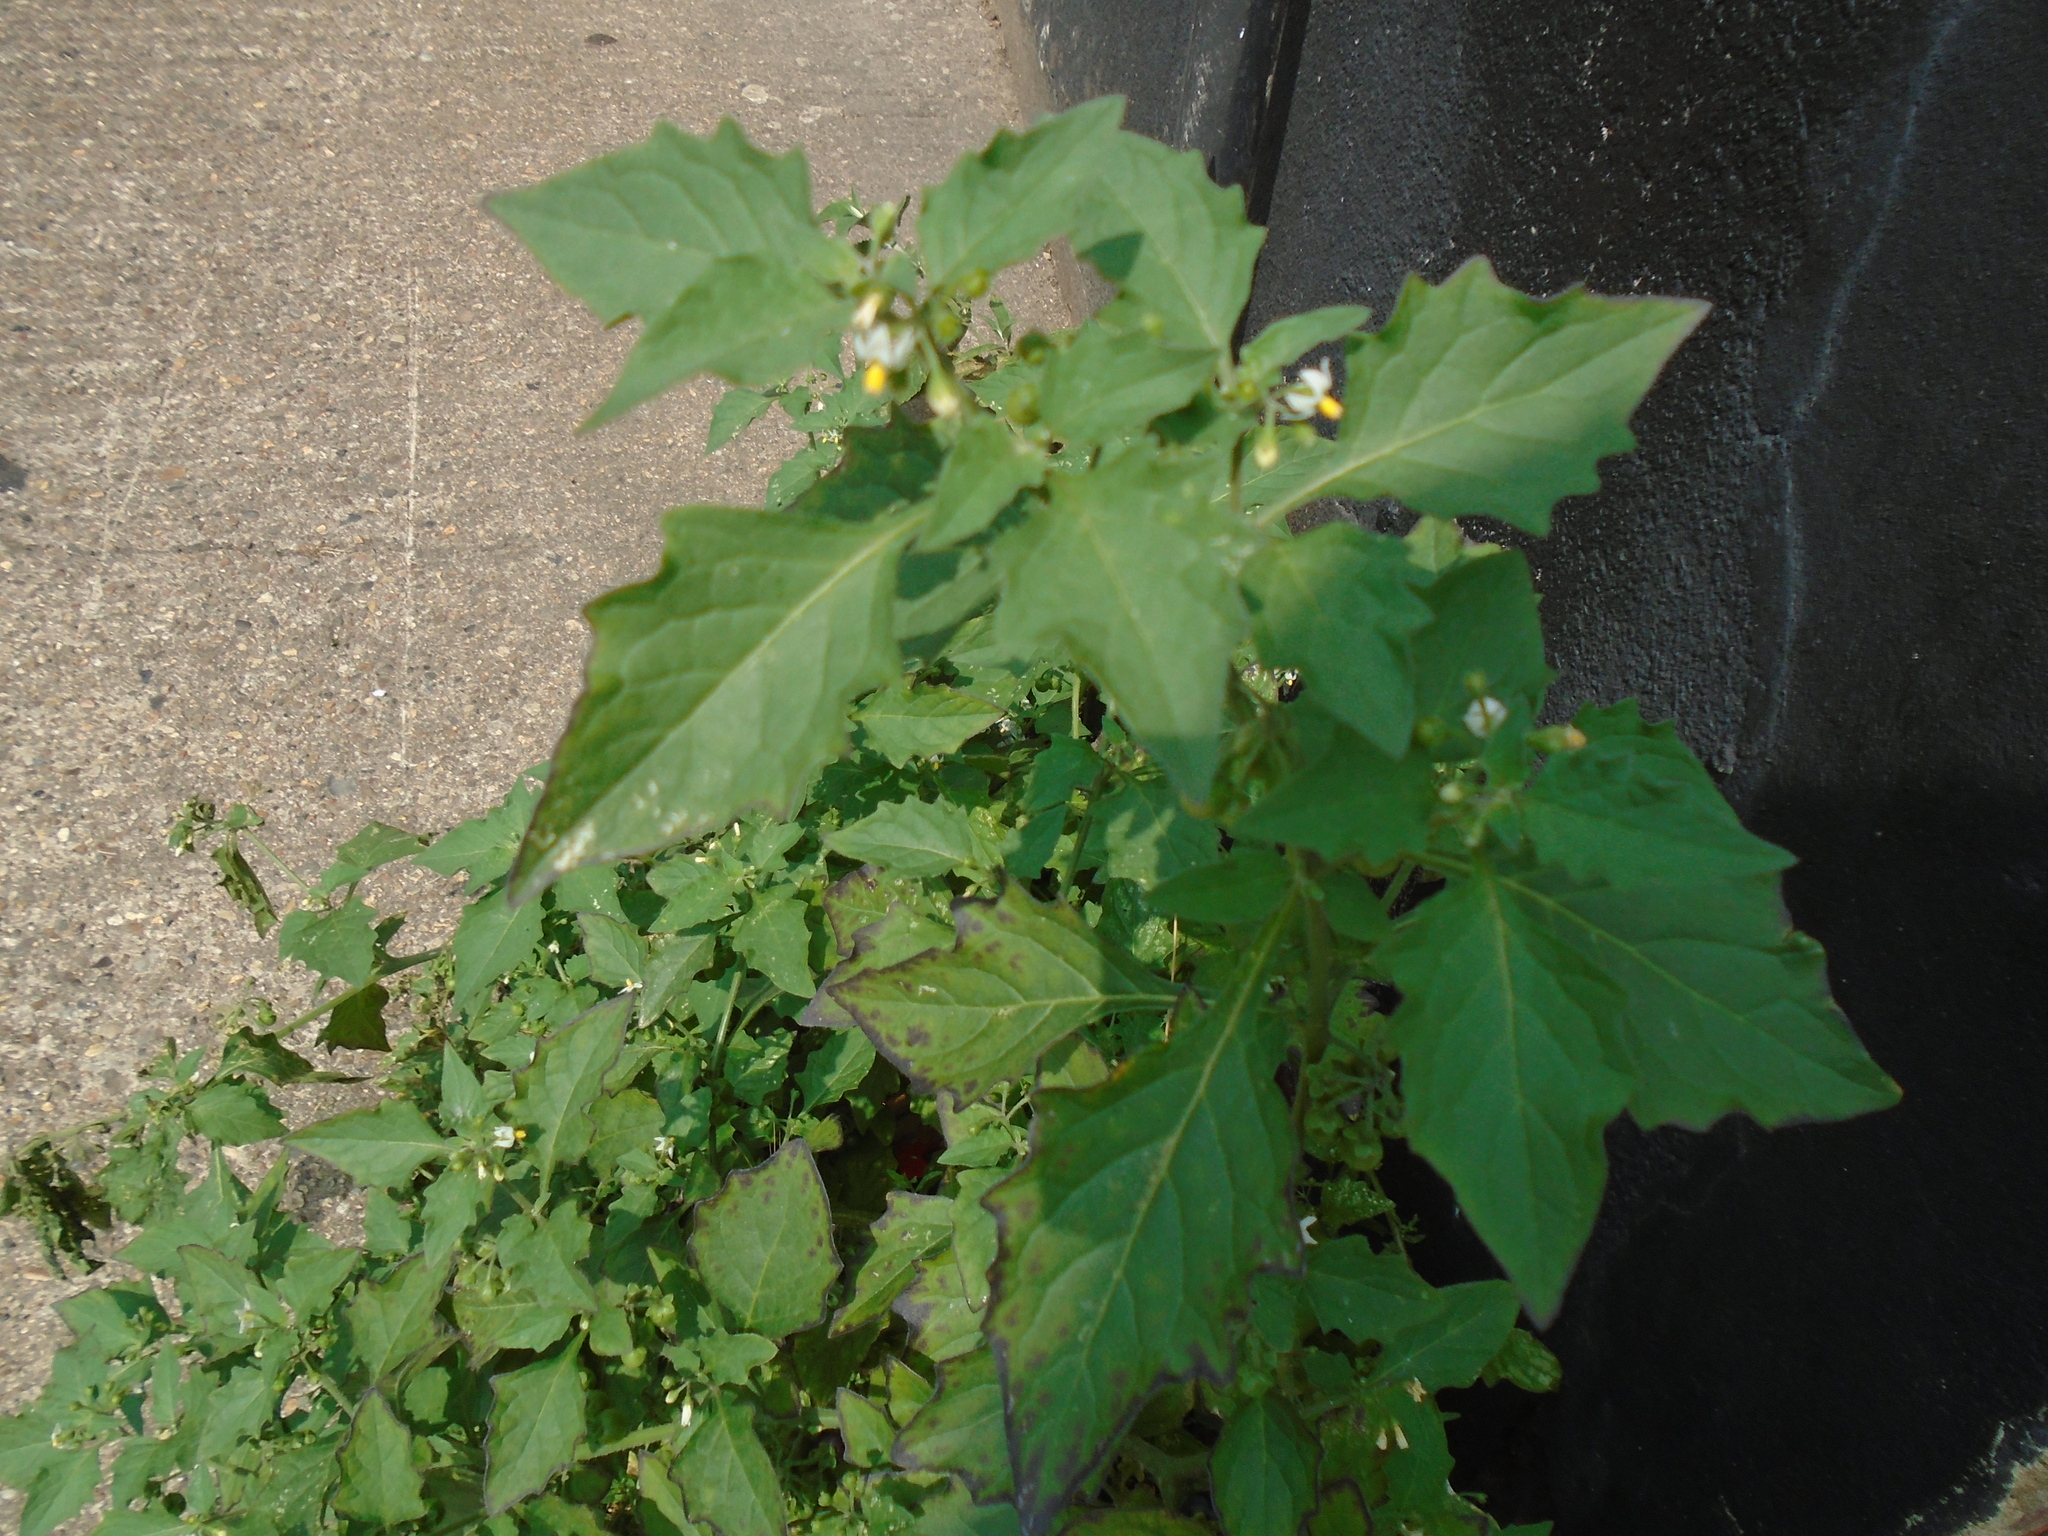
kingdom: Plantae
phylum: Tracheophyta
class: Magnoliopsida
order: Solanales
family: Solanaceae
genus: Solanum
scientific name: Solanum nigrum
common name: Black nightshade
